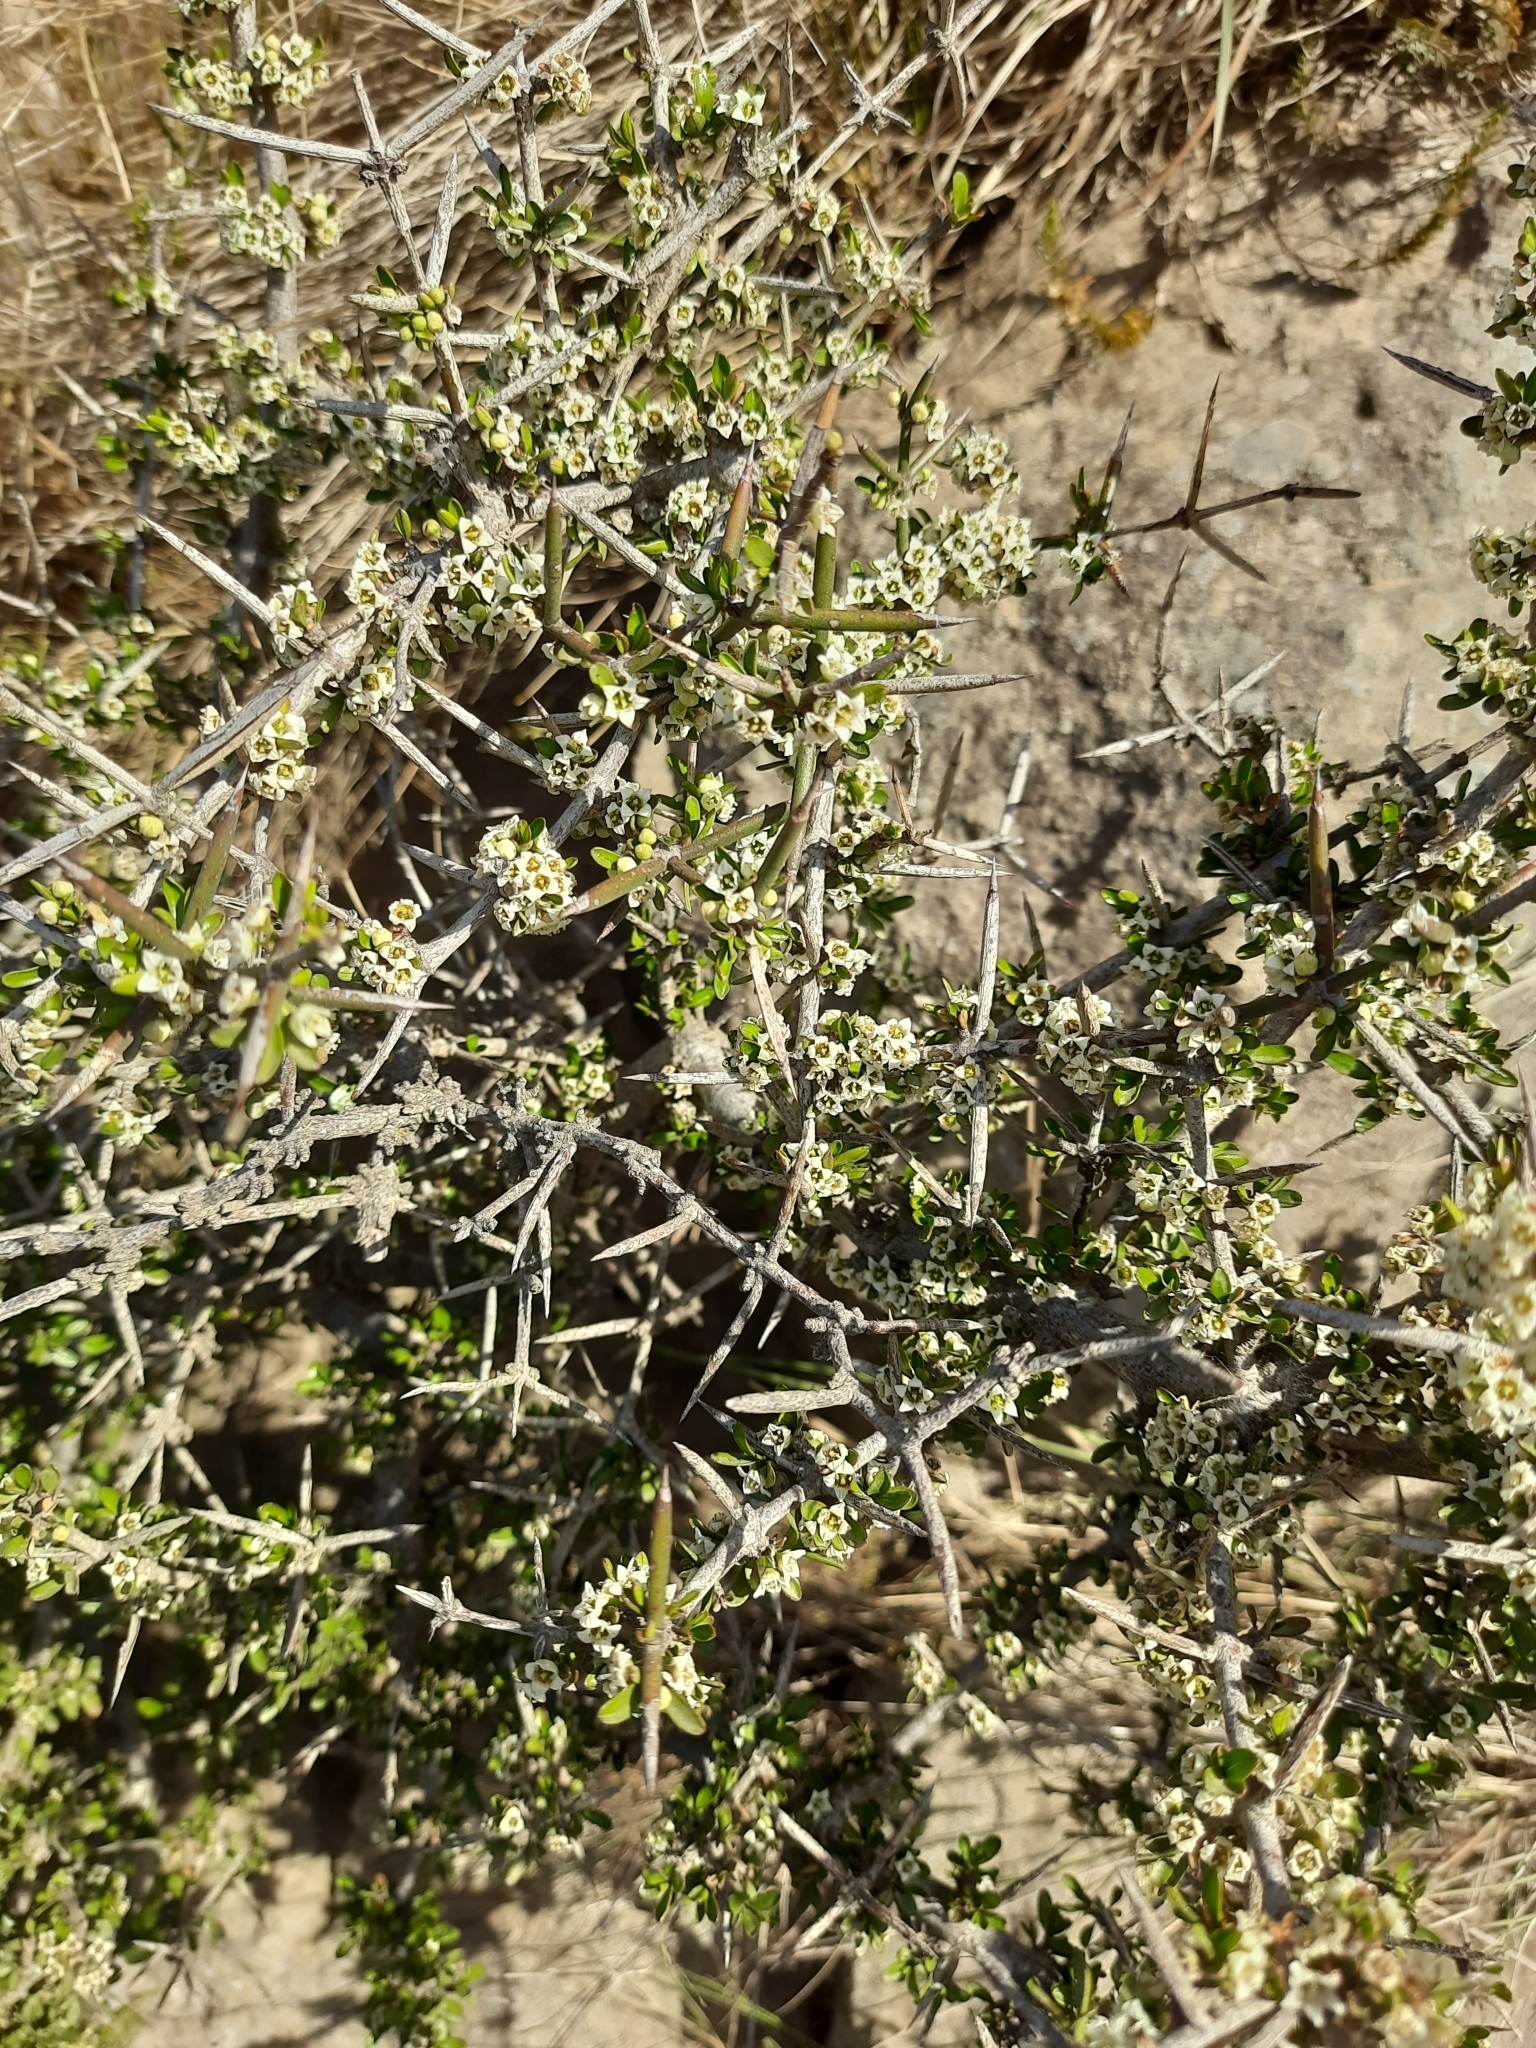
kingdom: Plantae
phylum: Tracheophyta
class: Magnoliopsida
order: Rosales
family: Rhamnaceae
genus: Discaria
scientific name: Discaria toumatou
